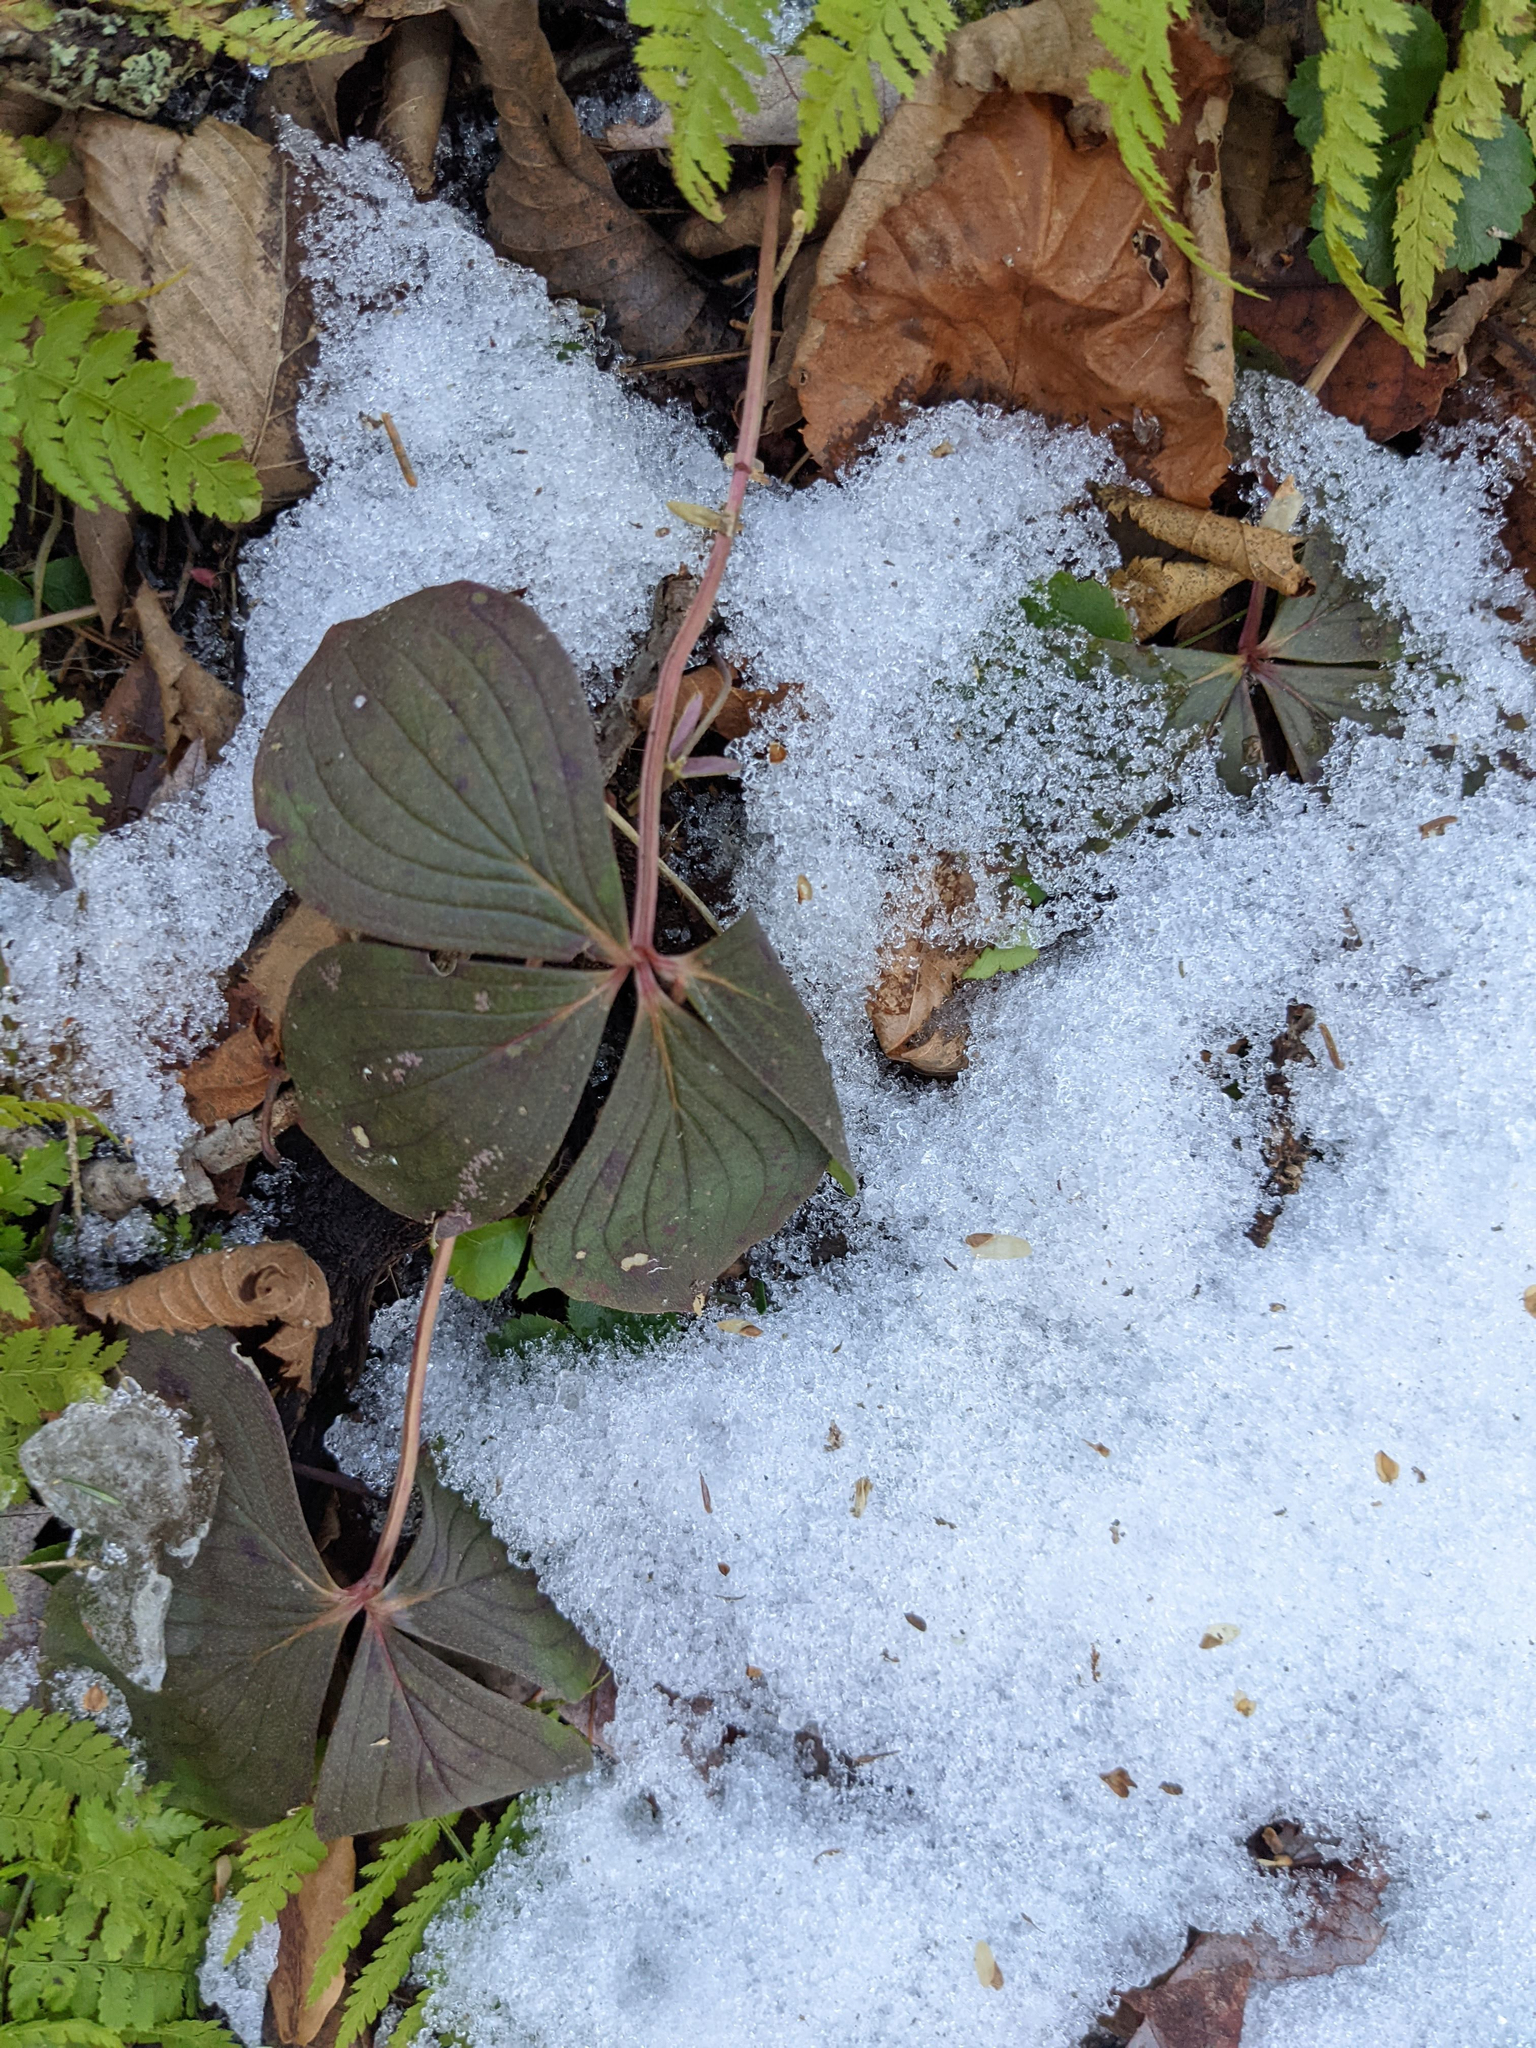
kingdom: Plantae
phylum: Tracheophyta
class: Magnoliopsida
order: Cornales
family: Cornaceae
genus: Cornus
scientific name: Cornus canadensis
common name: Creeping dogwood
